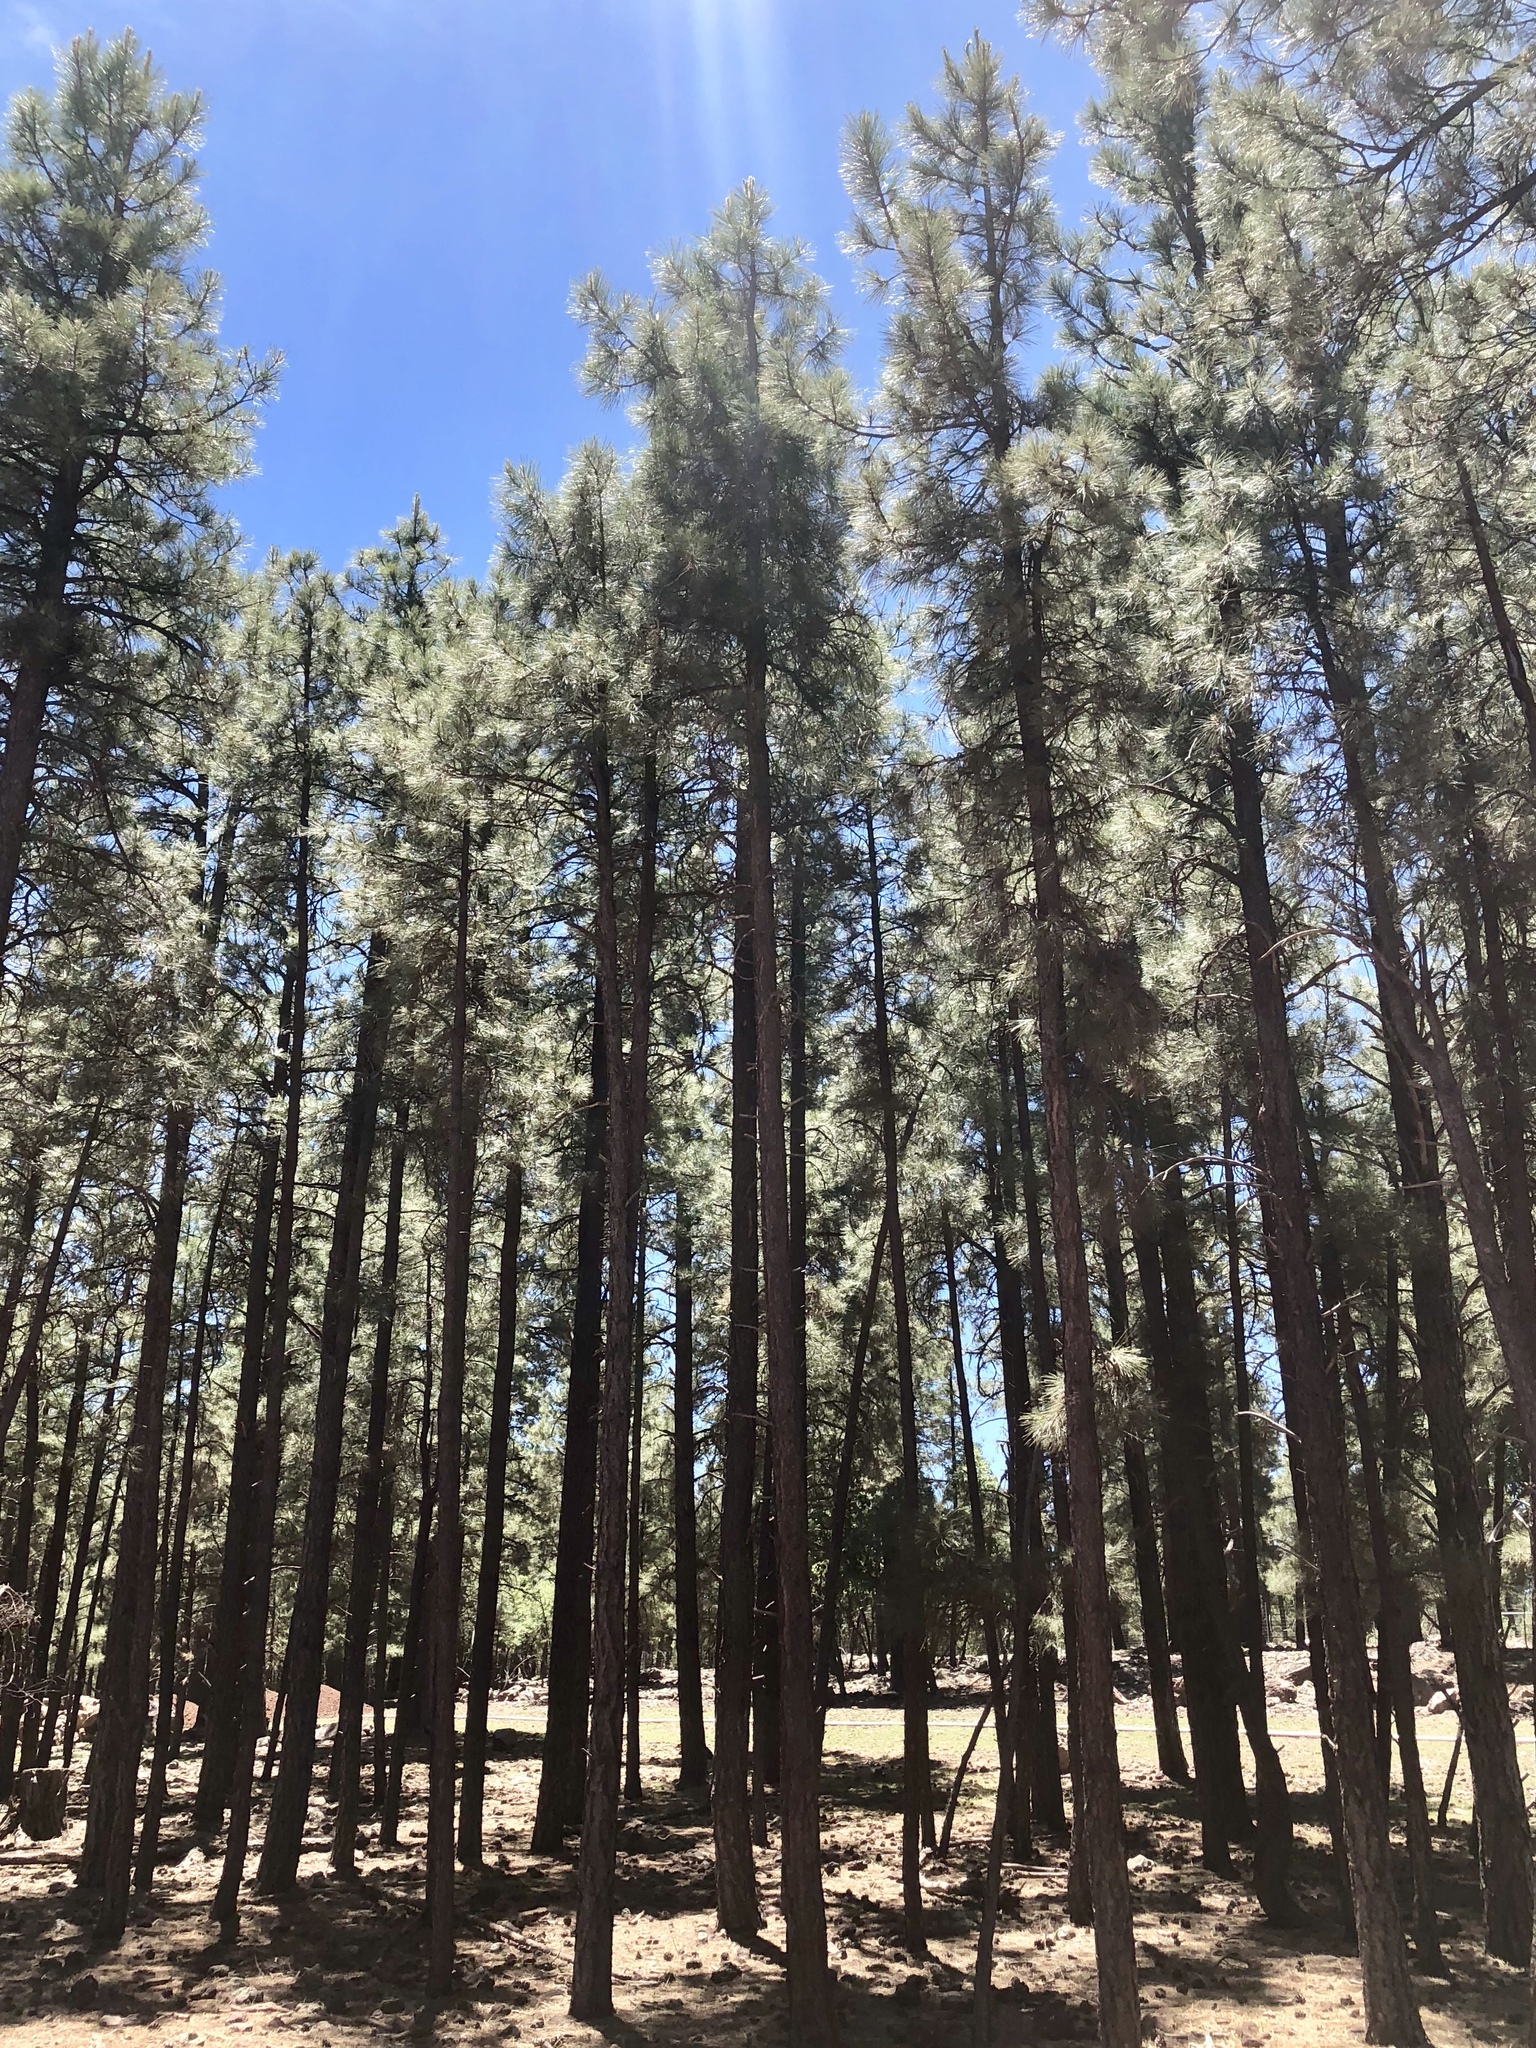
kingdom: Plantae
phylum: Tracheophyta
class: Pinopsida
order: Pinales
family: Pinaceae
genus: Pinus
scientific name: Pinus ponderosa
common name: Western yellow-pine
